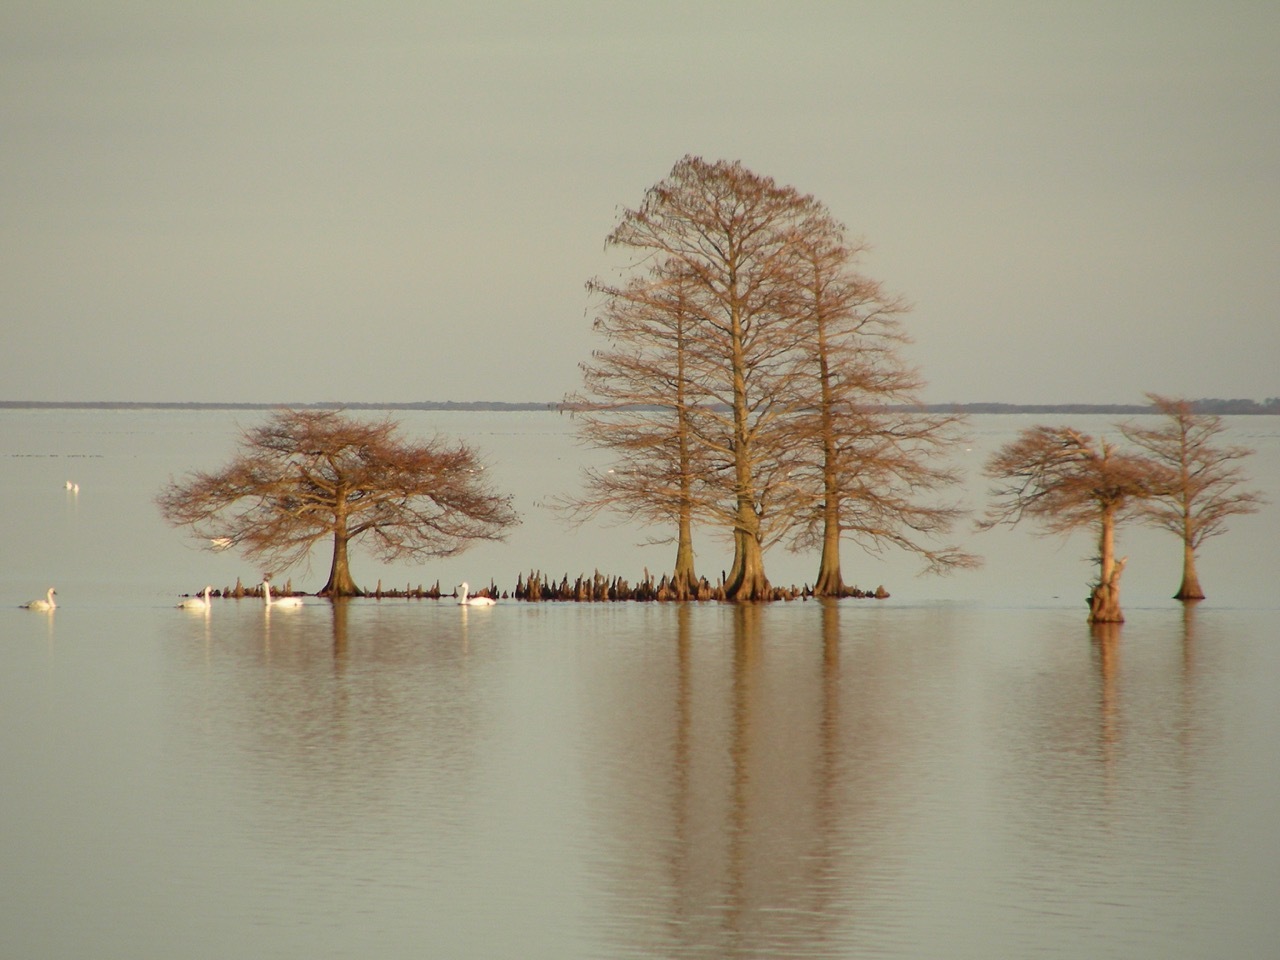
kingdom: Animalia
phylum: Chordata
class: Aves
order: Anseriformes
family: Anatidae
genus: Cygnus
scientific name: Cygnus columbianus
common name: Tundra swan
